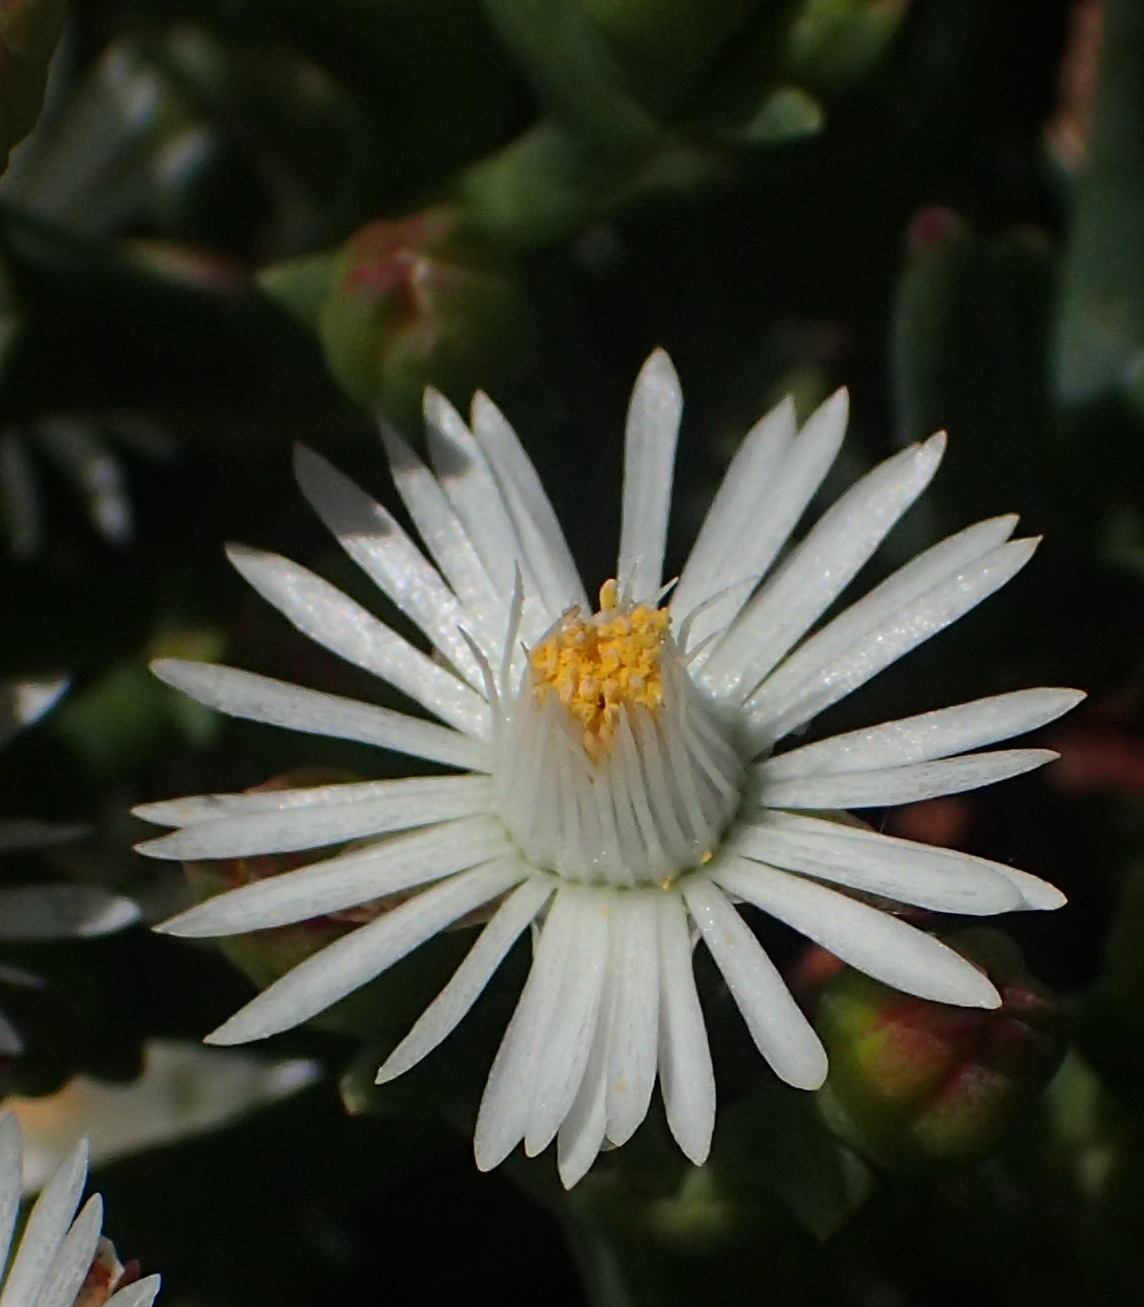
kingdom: Plantae
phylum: Tracheophyta
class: Magnoliopsida
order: Caryophyllales
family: Aizoaceae
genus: Ruschia
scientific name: Ruschia multiflora
